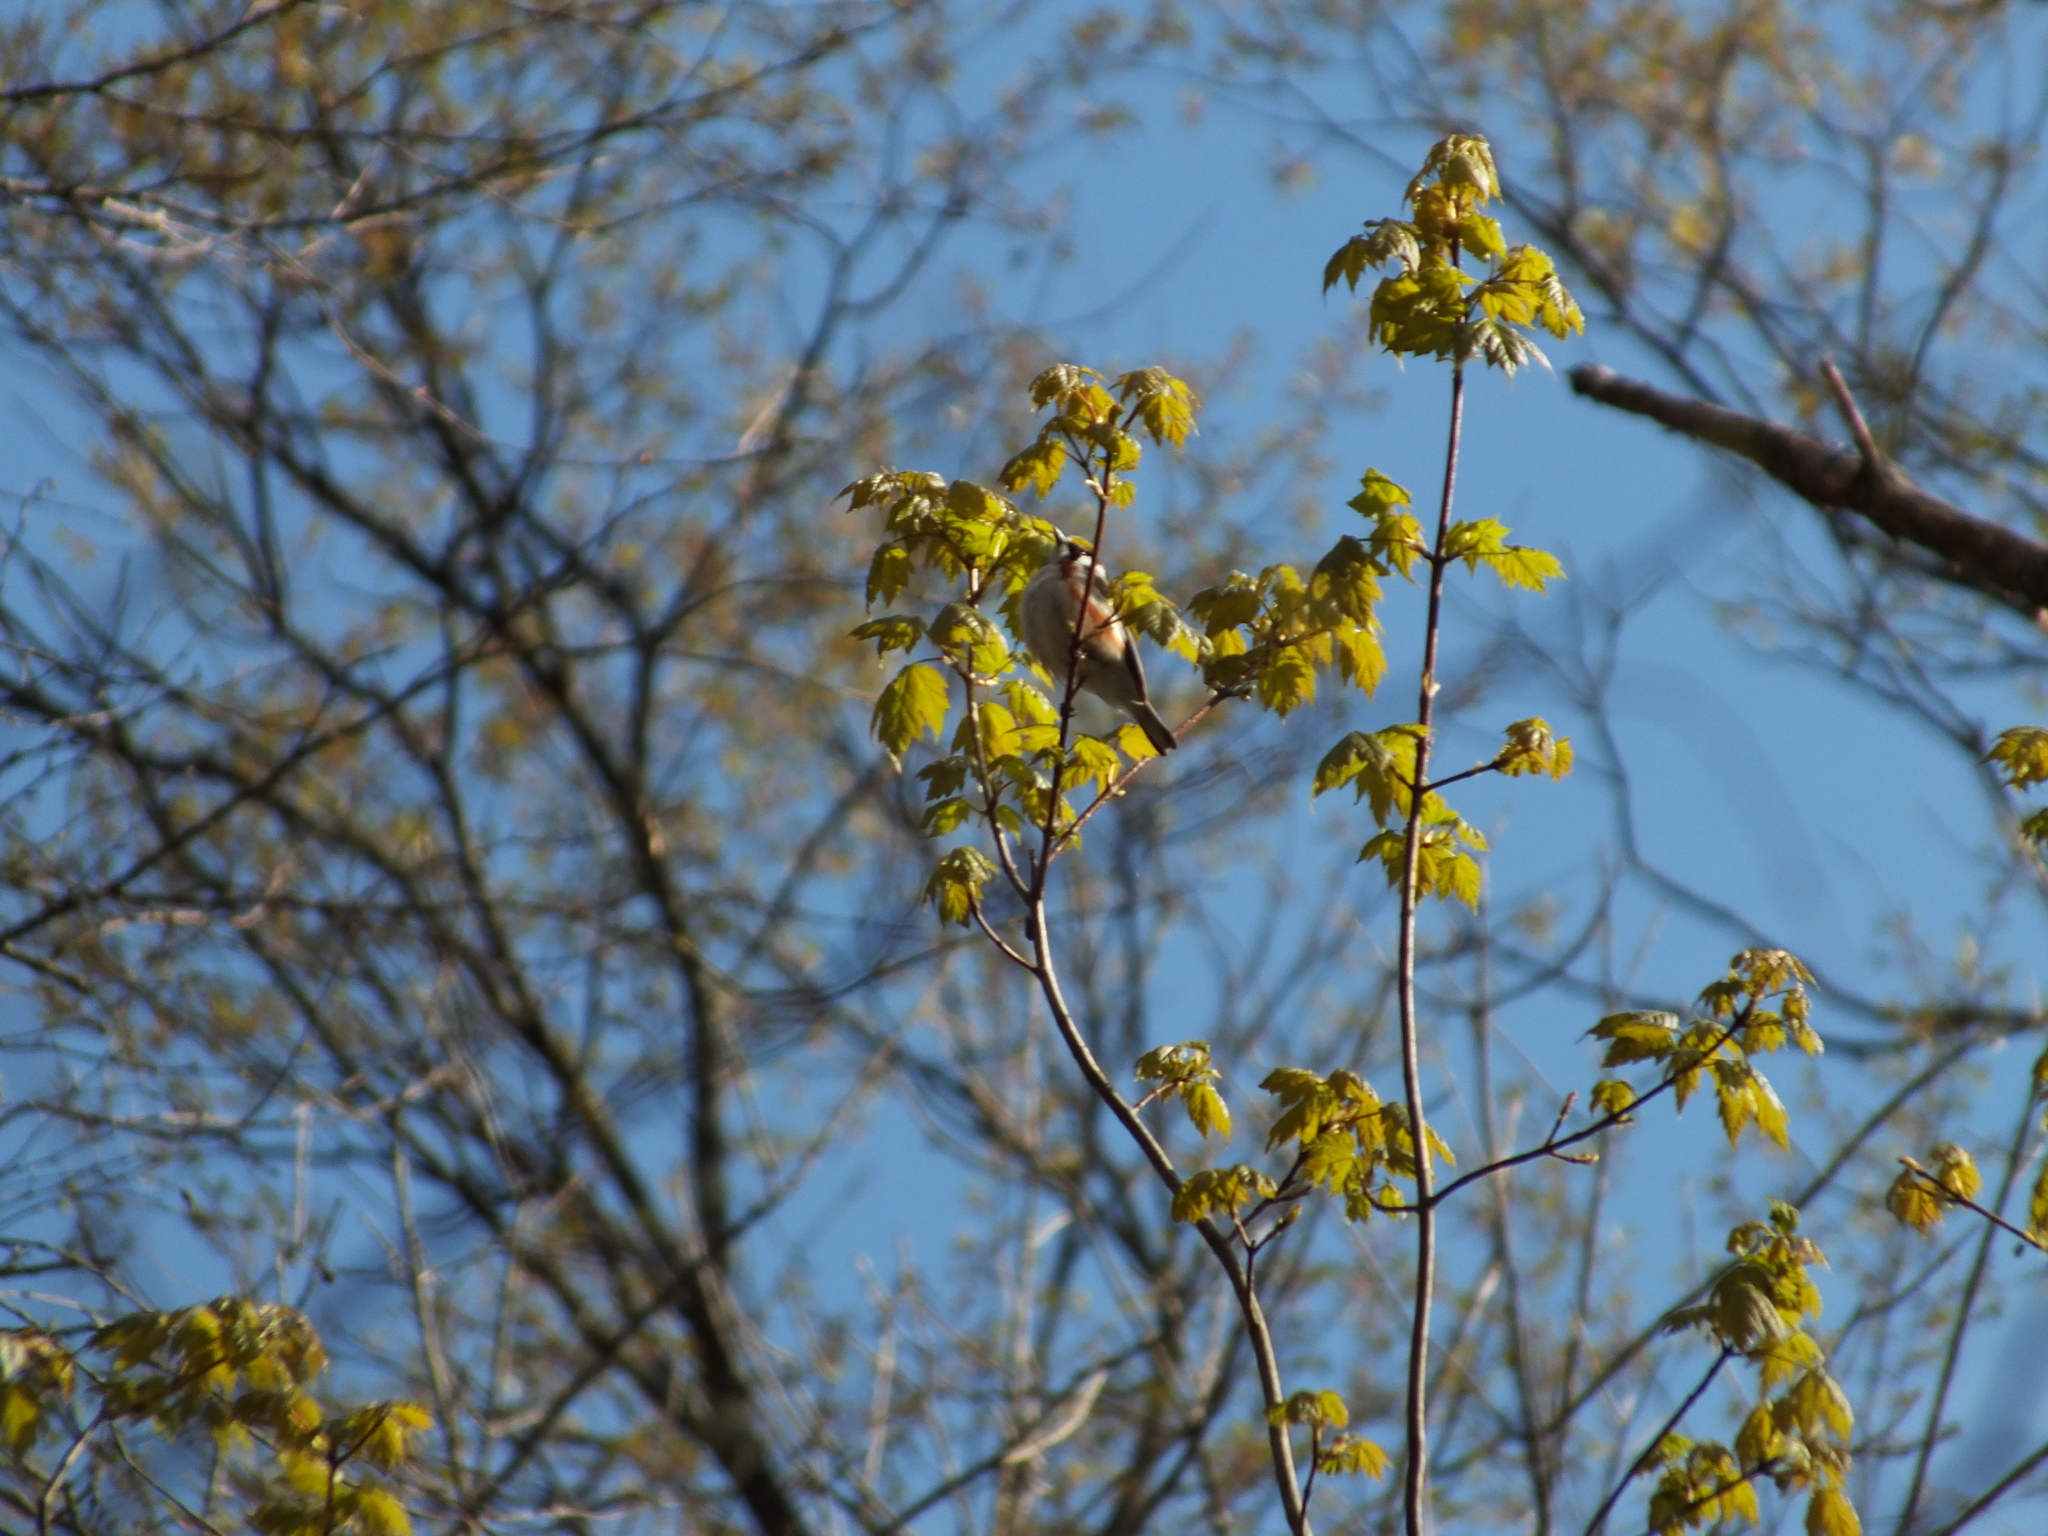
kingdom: Animalia
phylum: Chordata
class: Aves
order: Passeriformes
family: Parulidae
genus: Setophaga
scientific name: Setophaga pensylvanica
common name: Chestnut-sided warbler
